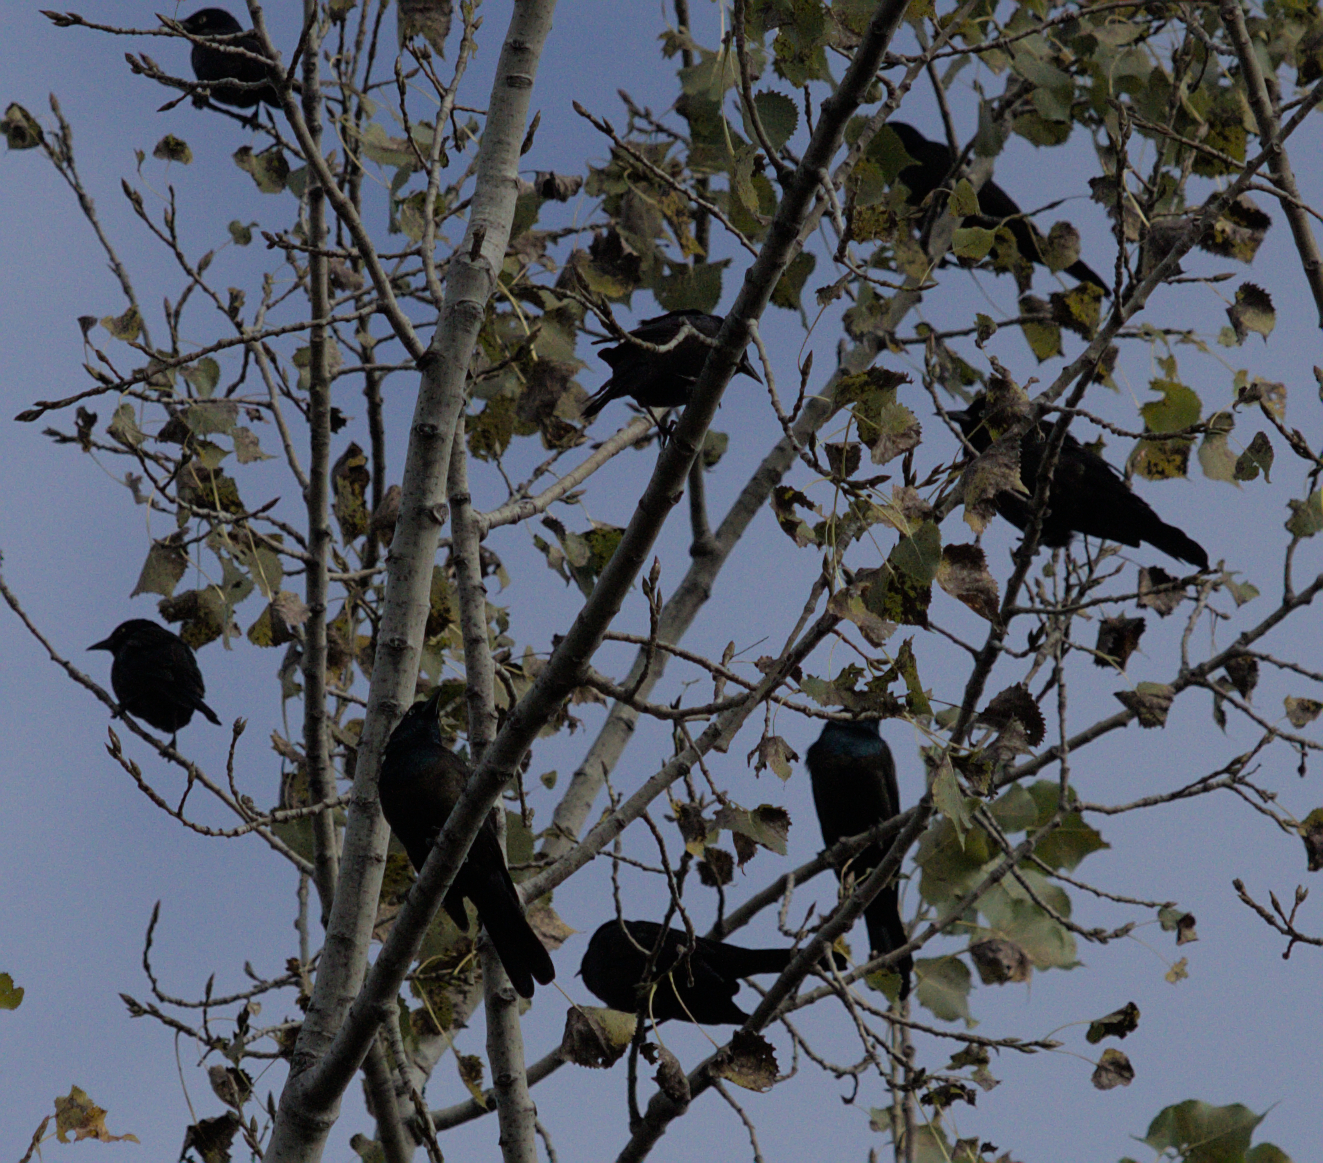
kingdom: Animalia
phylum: Chordata
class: Aves
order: Passeriformes
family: Icteridae
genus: Quiscalus
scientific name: Quiscalus quiscula
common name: Common grackle
